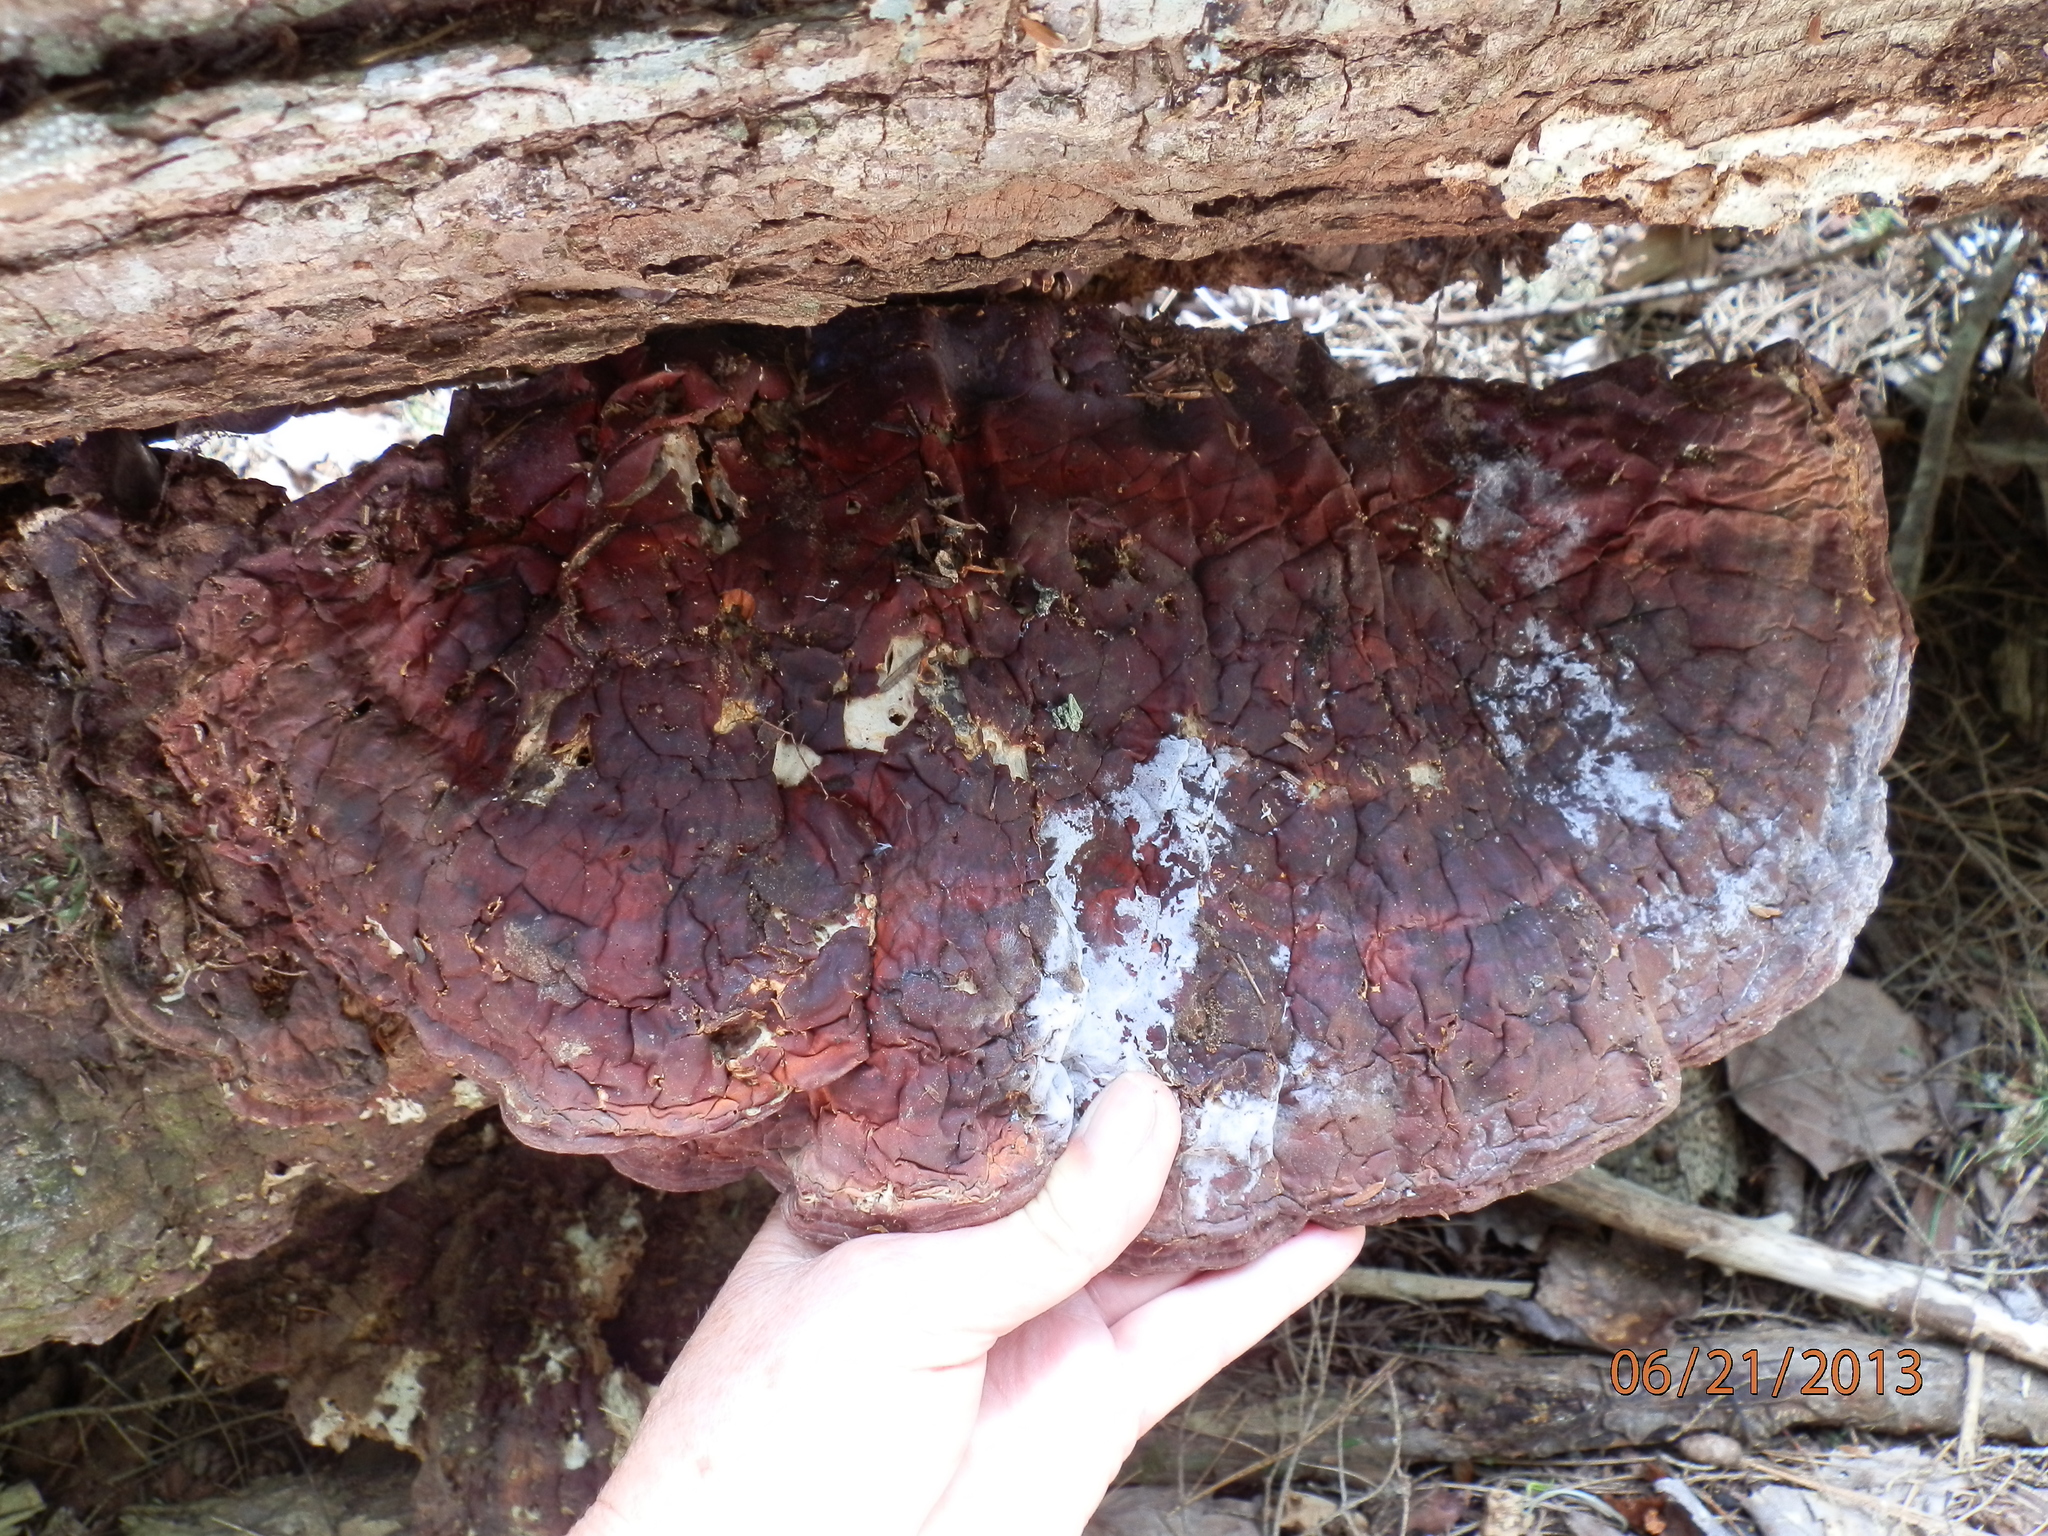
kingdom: Fungi
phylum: Basidiomycota
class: Agaricomycetes
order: Polyporales
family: Polyporaceae
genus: Ganoderma
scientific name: Ganoderma tsugae
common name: Hemlock varnish shelf
